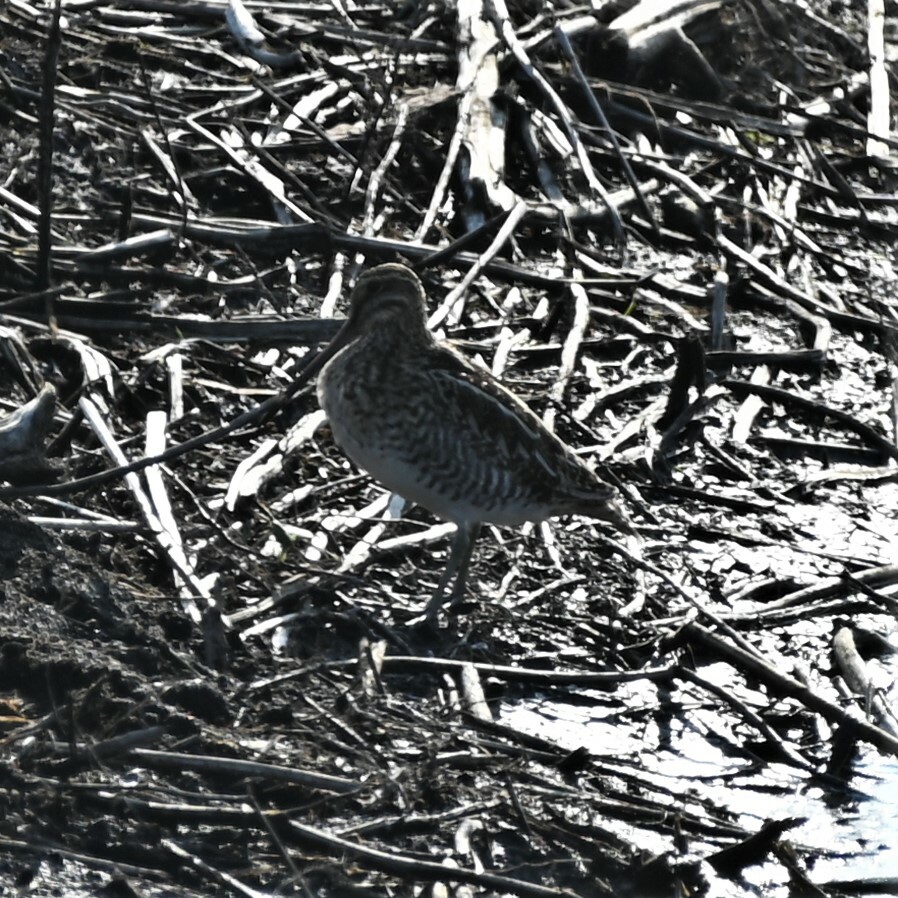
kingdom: Animalia
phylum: Chordata
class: Aves
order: Charadriiformes
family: Scolopacidae
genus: Gallinago
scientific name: Gallinago delicata
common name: Wilson's snipe
